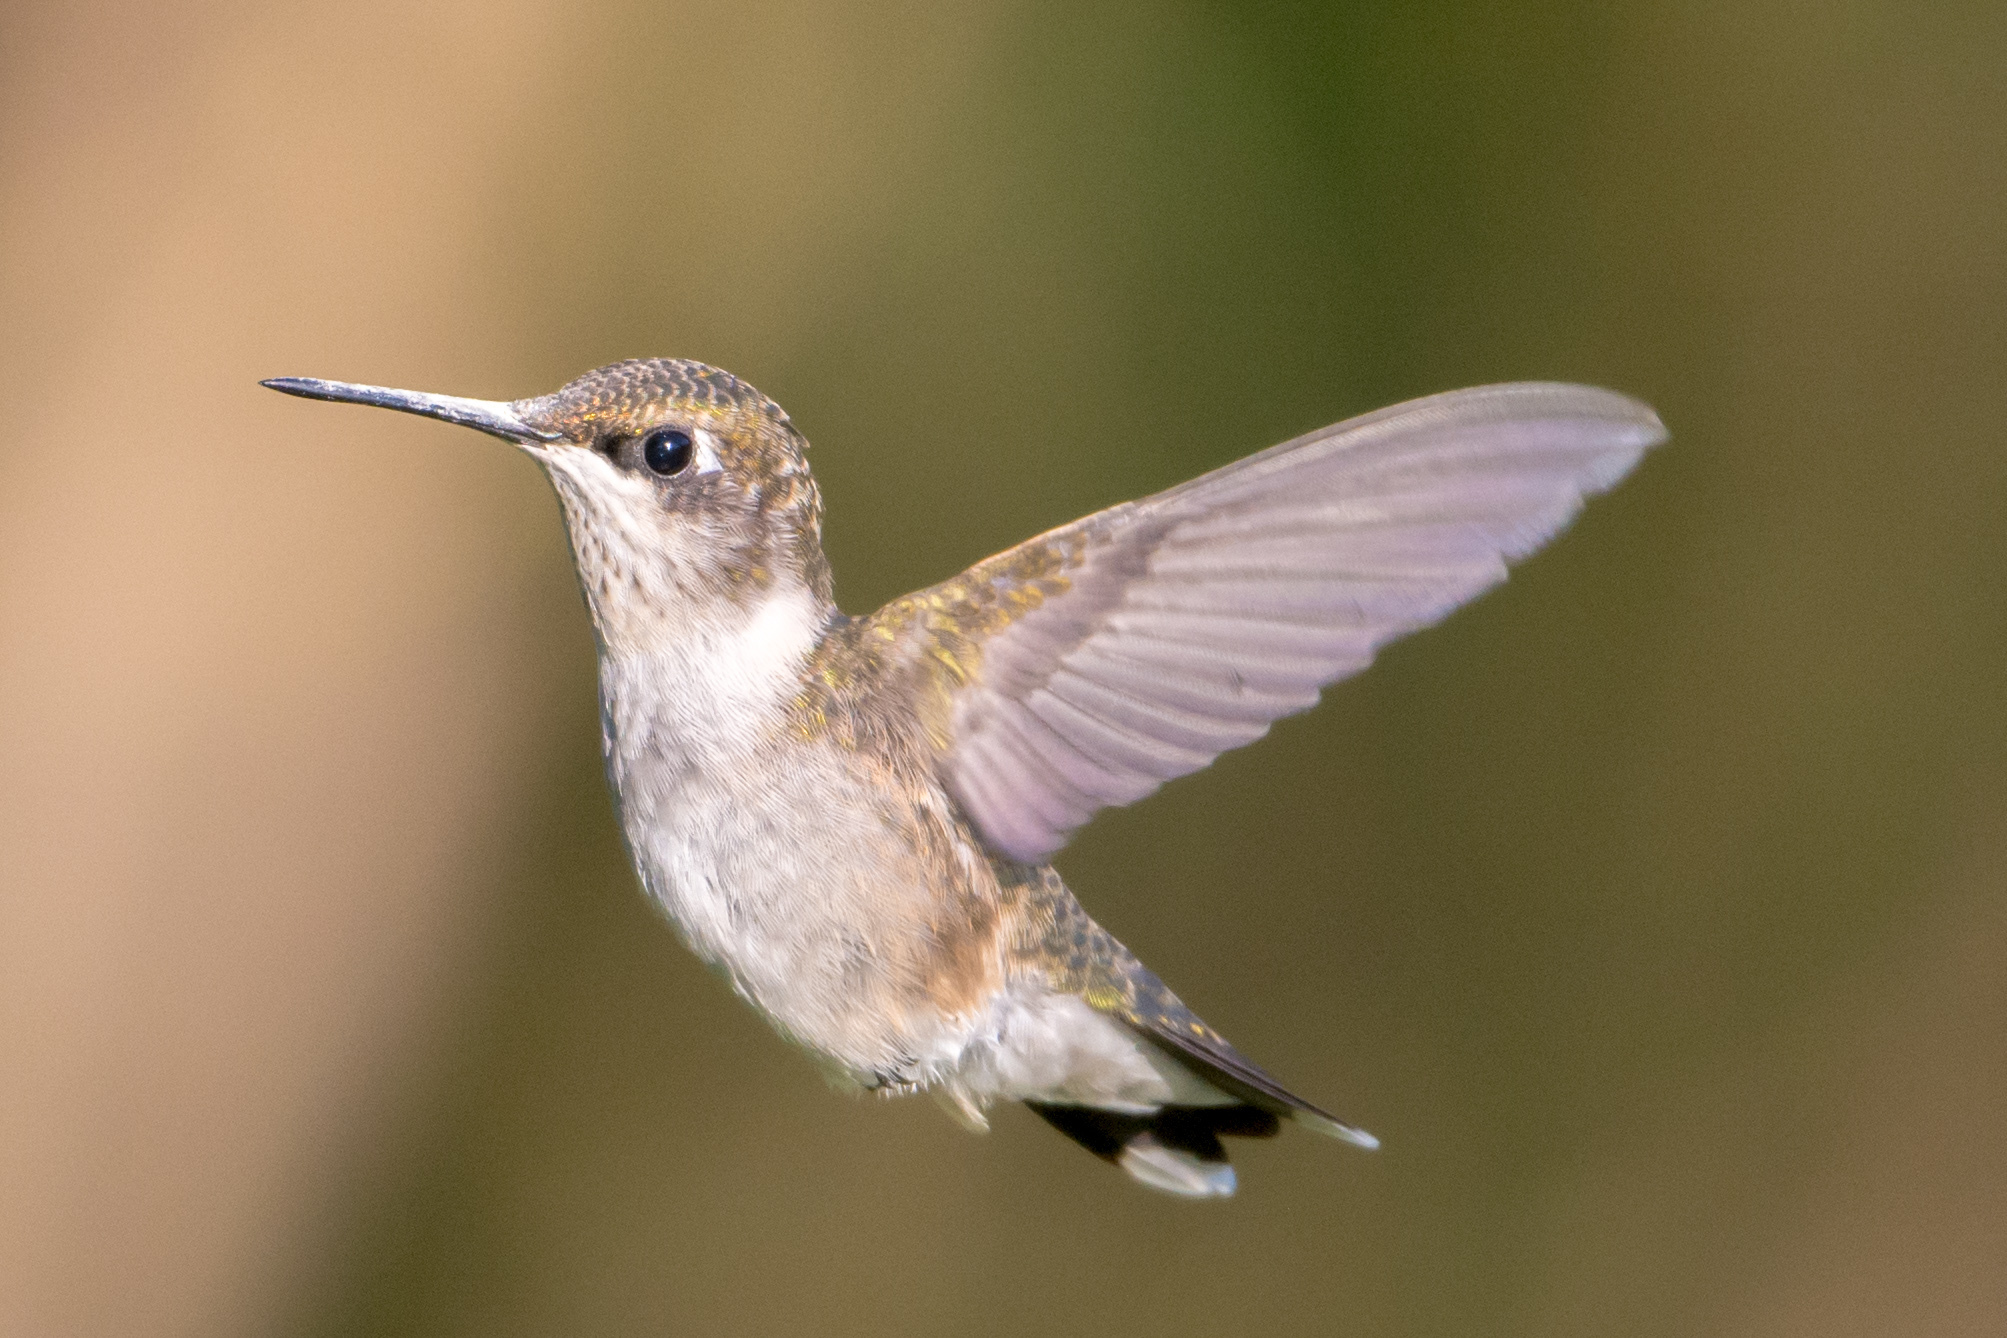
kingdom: Animalia
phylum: Chordata
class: Aves
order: Apodiformes
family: Trochilidae
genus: Archilochus
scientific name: Archilochus colubris
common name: Ruby-throated hummingbird
